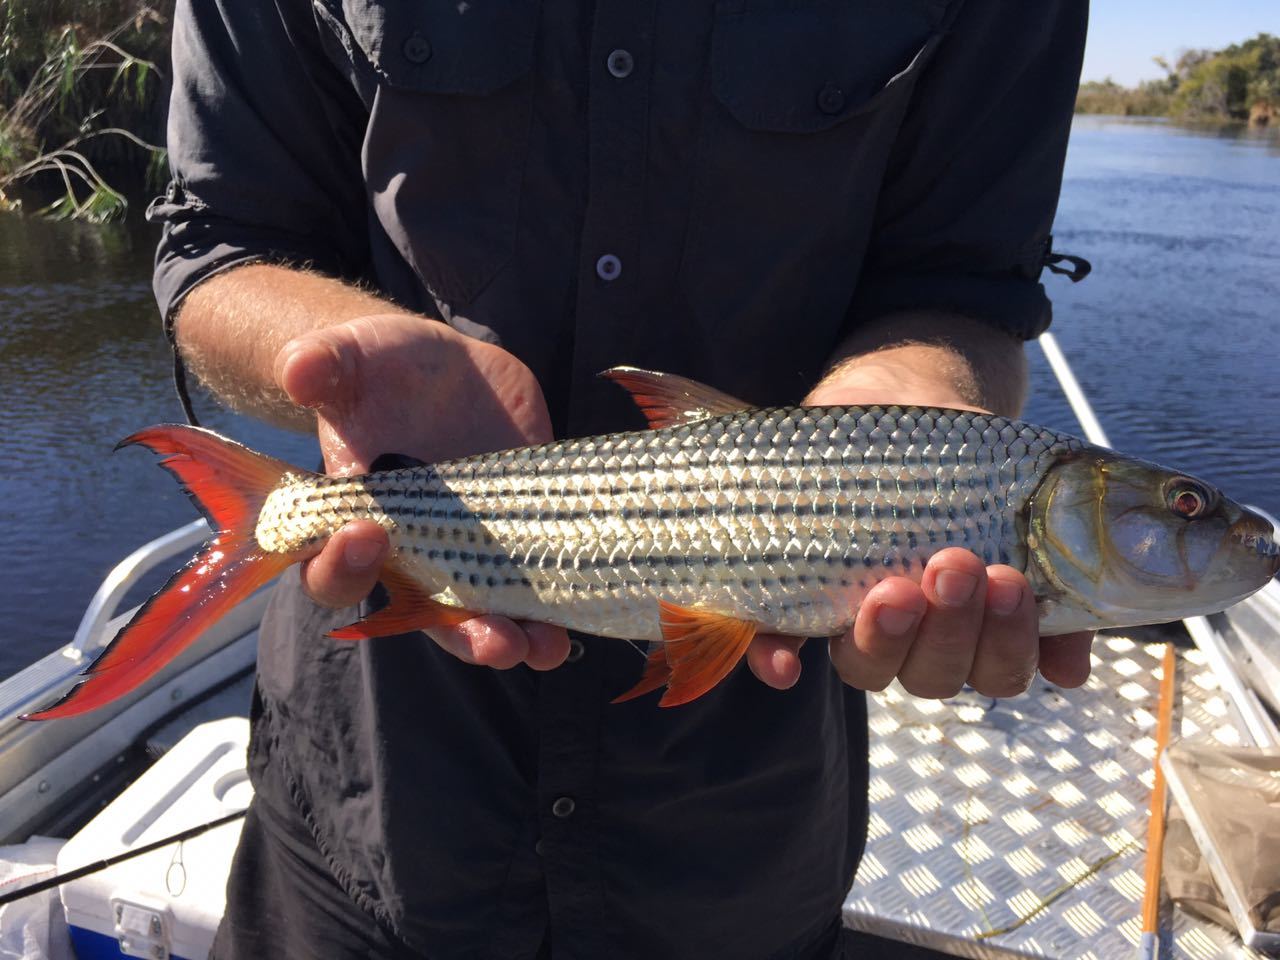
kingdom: Animalia
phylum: Chordata
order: Characiformes
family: Alestidae
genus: Hydrocynus
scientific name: Hydrocynus vittatus
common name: Tigerfish
